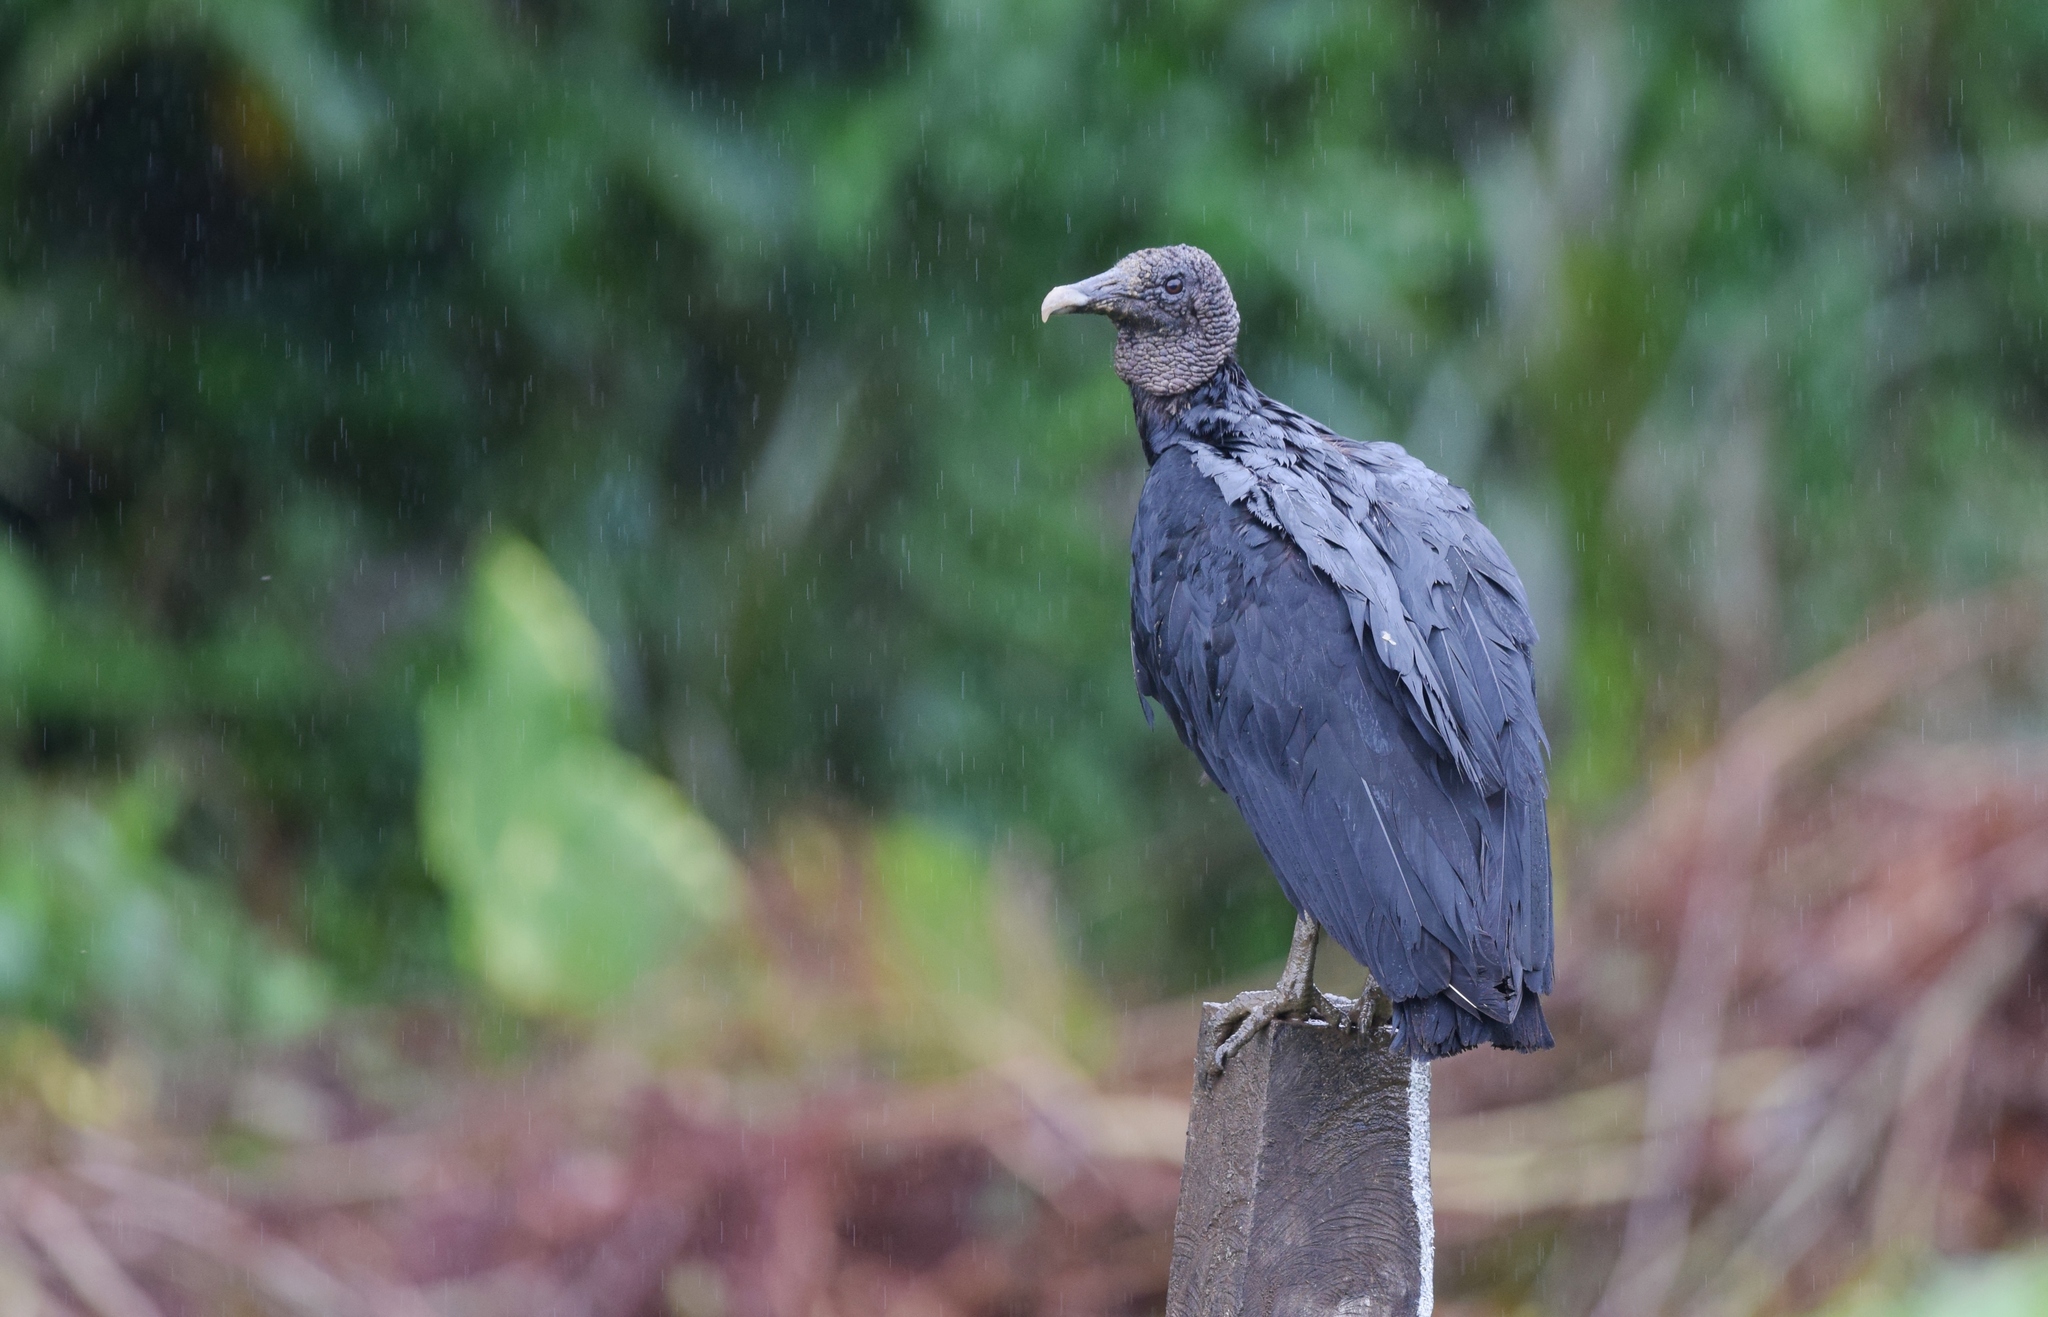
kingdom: Animalia
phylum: Chordata
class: Aves
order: Accipitriformes
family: Cathartidae
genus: Coragyps
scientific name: Coragyps atratus
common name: Black vulture
